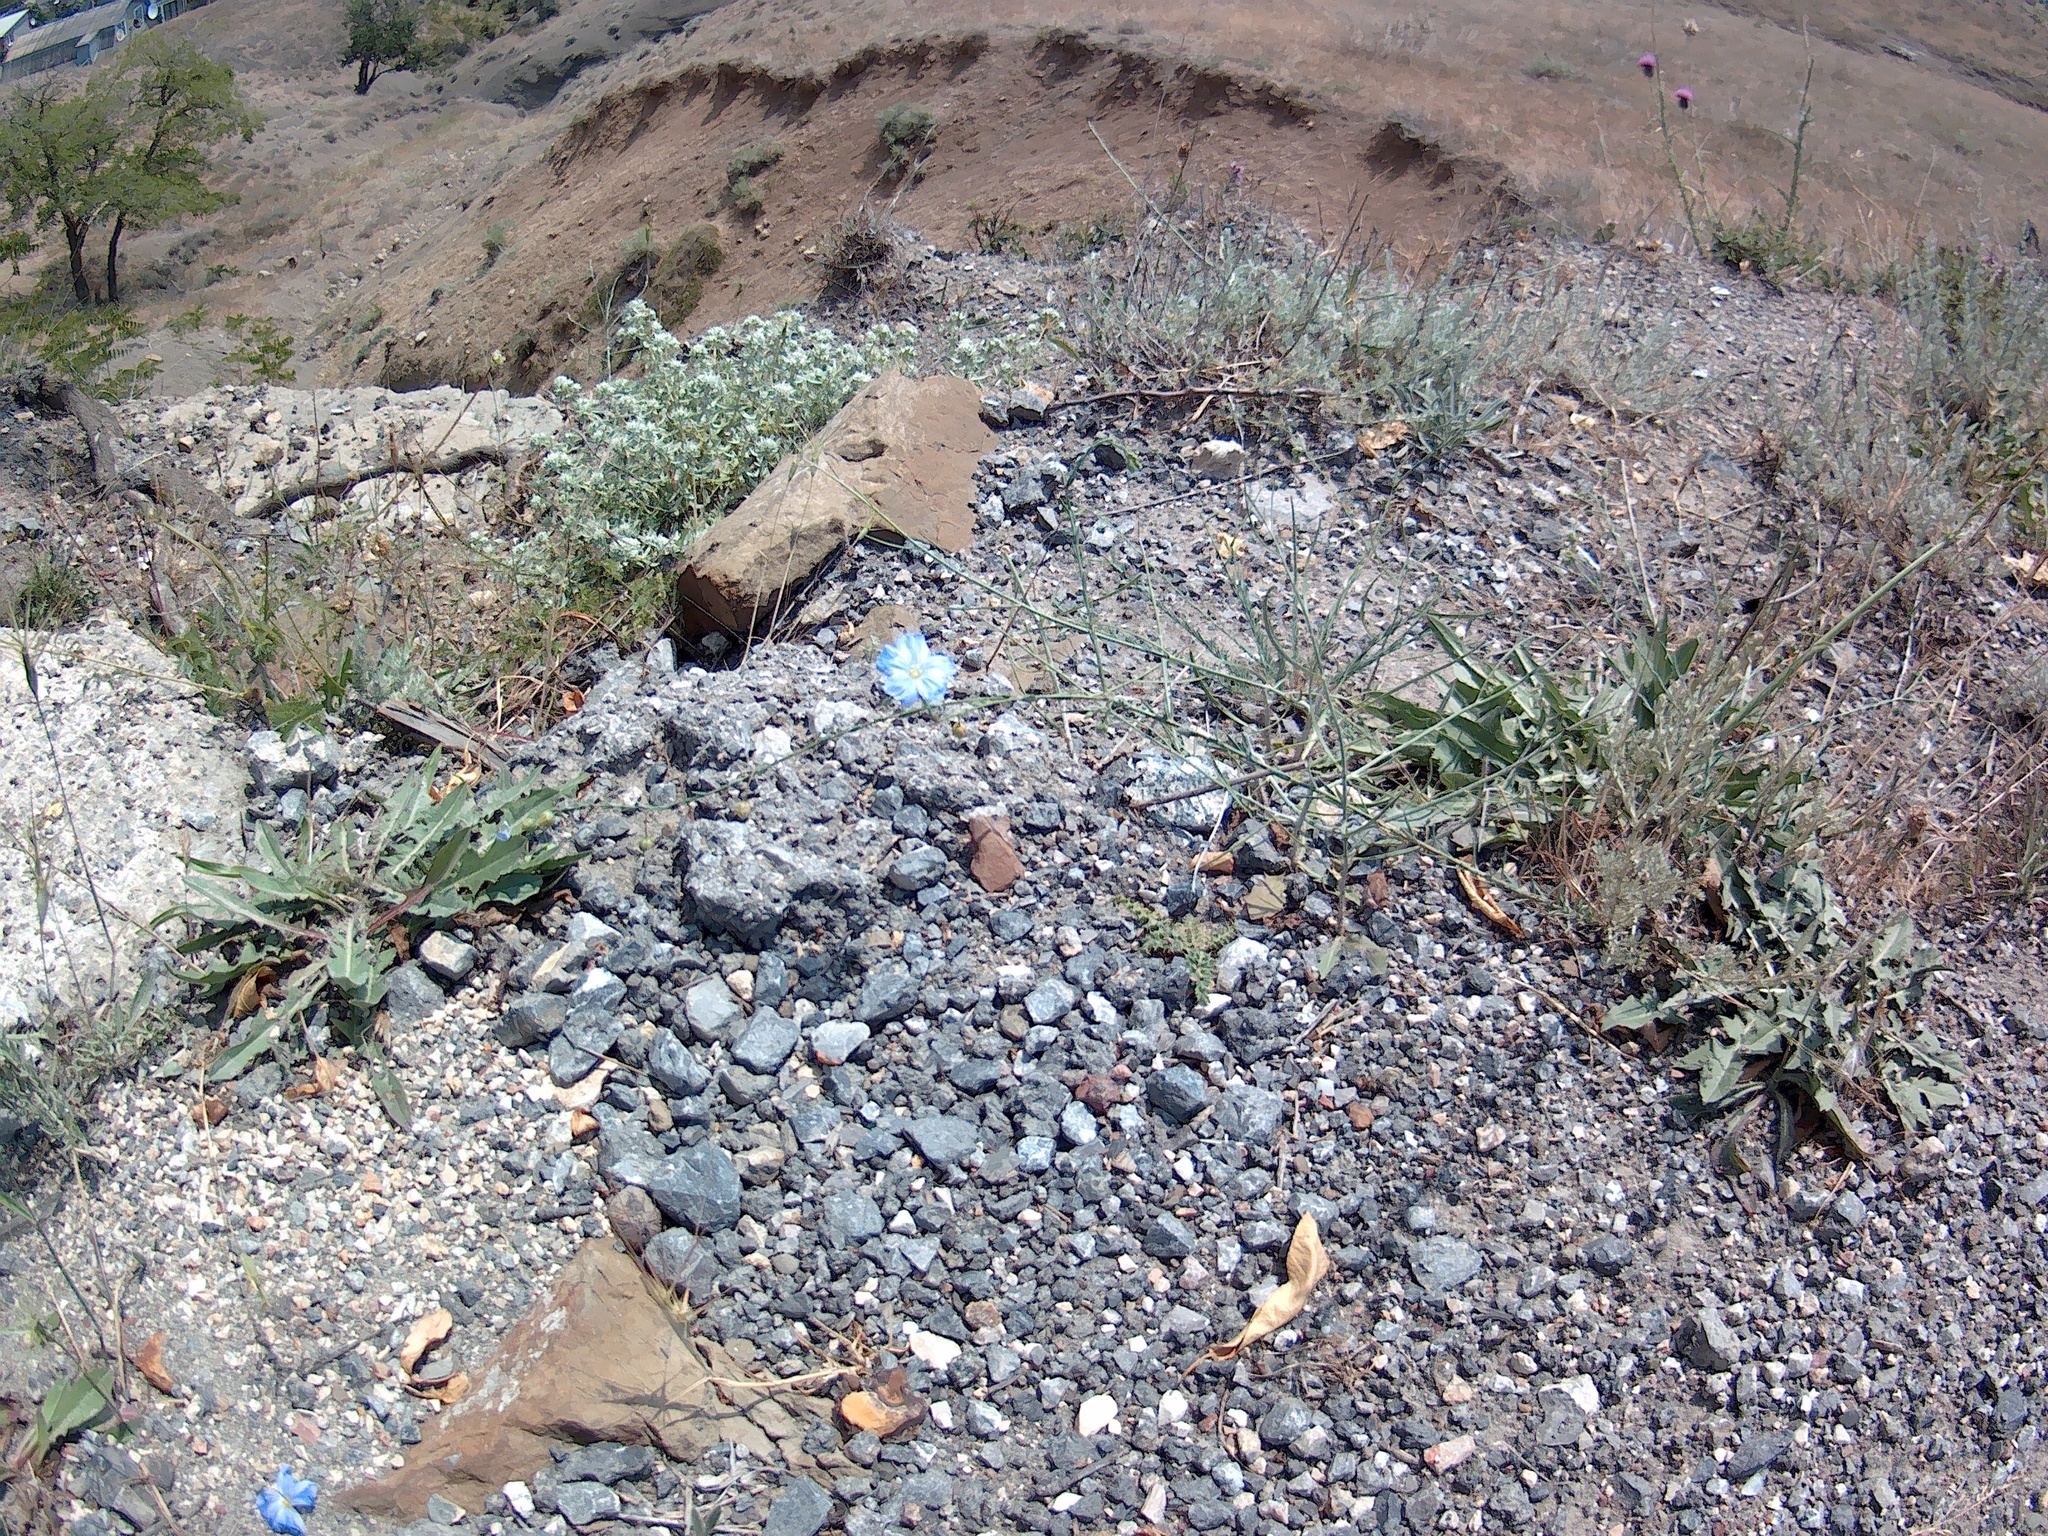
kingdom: Plantae
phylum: Tracheophyta
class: Magnoliopsida
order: Malpighiales
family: Linaceae
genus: Linum
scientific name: Linum austriacum
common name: Austrian flax
